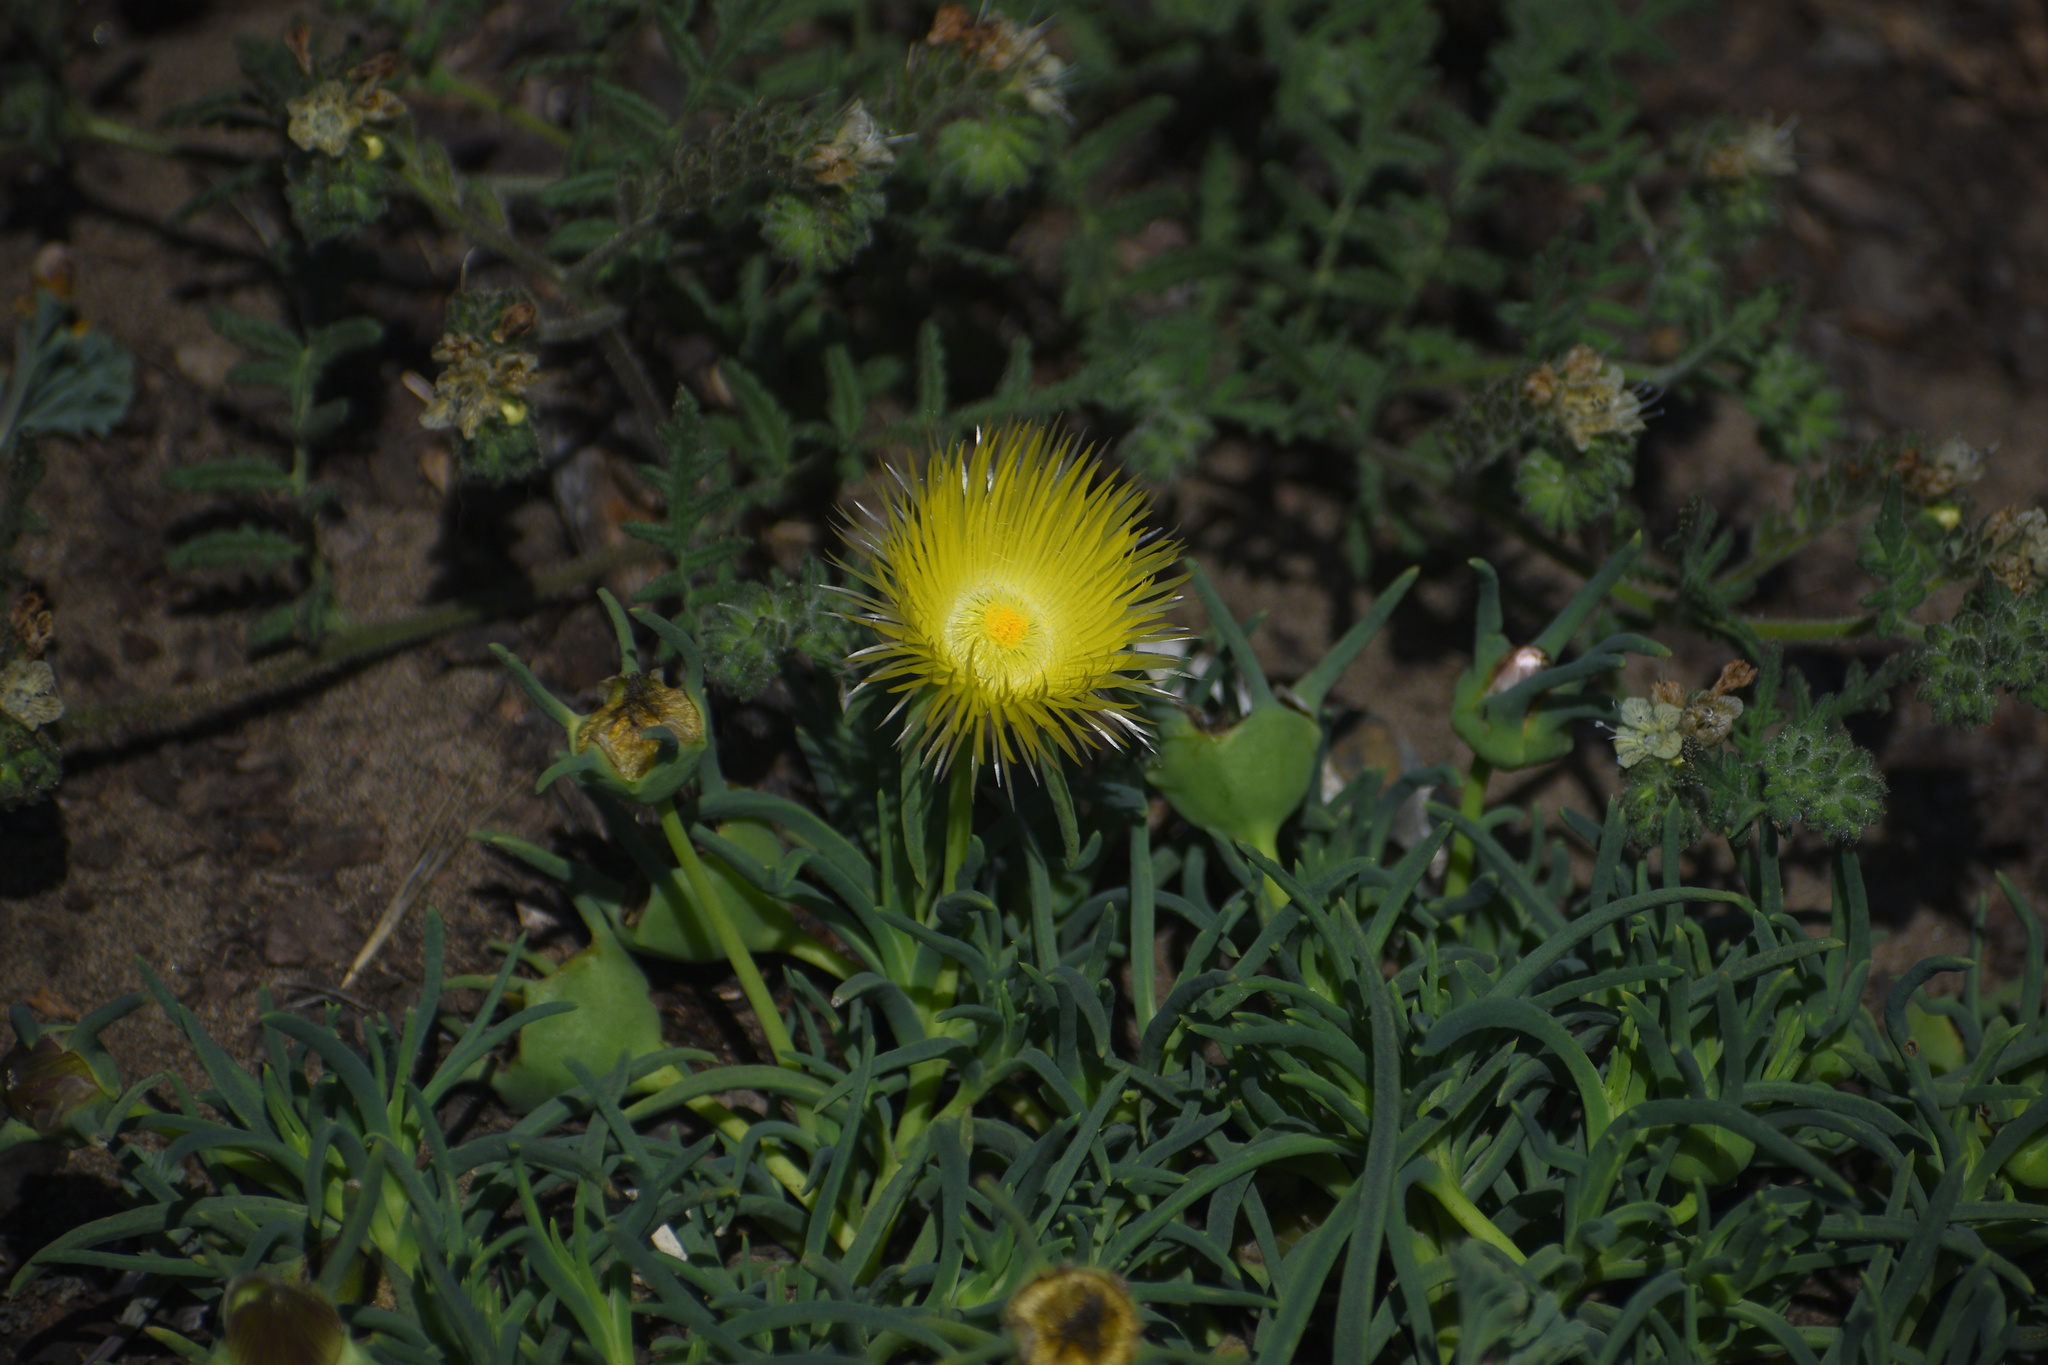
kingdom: Plantae
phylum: Tracheophyta
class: Magnoliopsida
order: Caryophyllales
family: Aizoaceae
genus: Conicosia
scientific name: Conicosia pugioniformis
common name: Narrow-leaved iceplant
